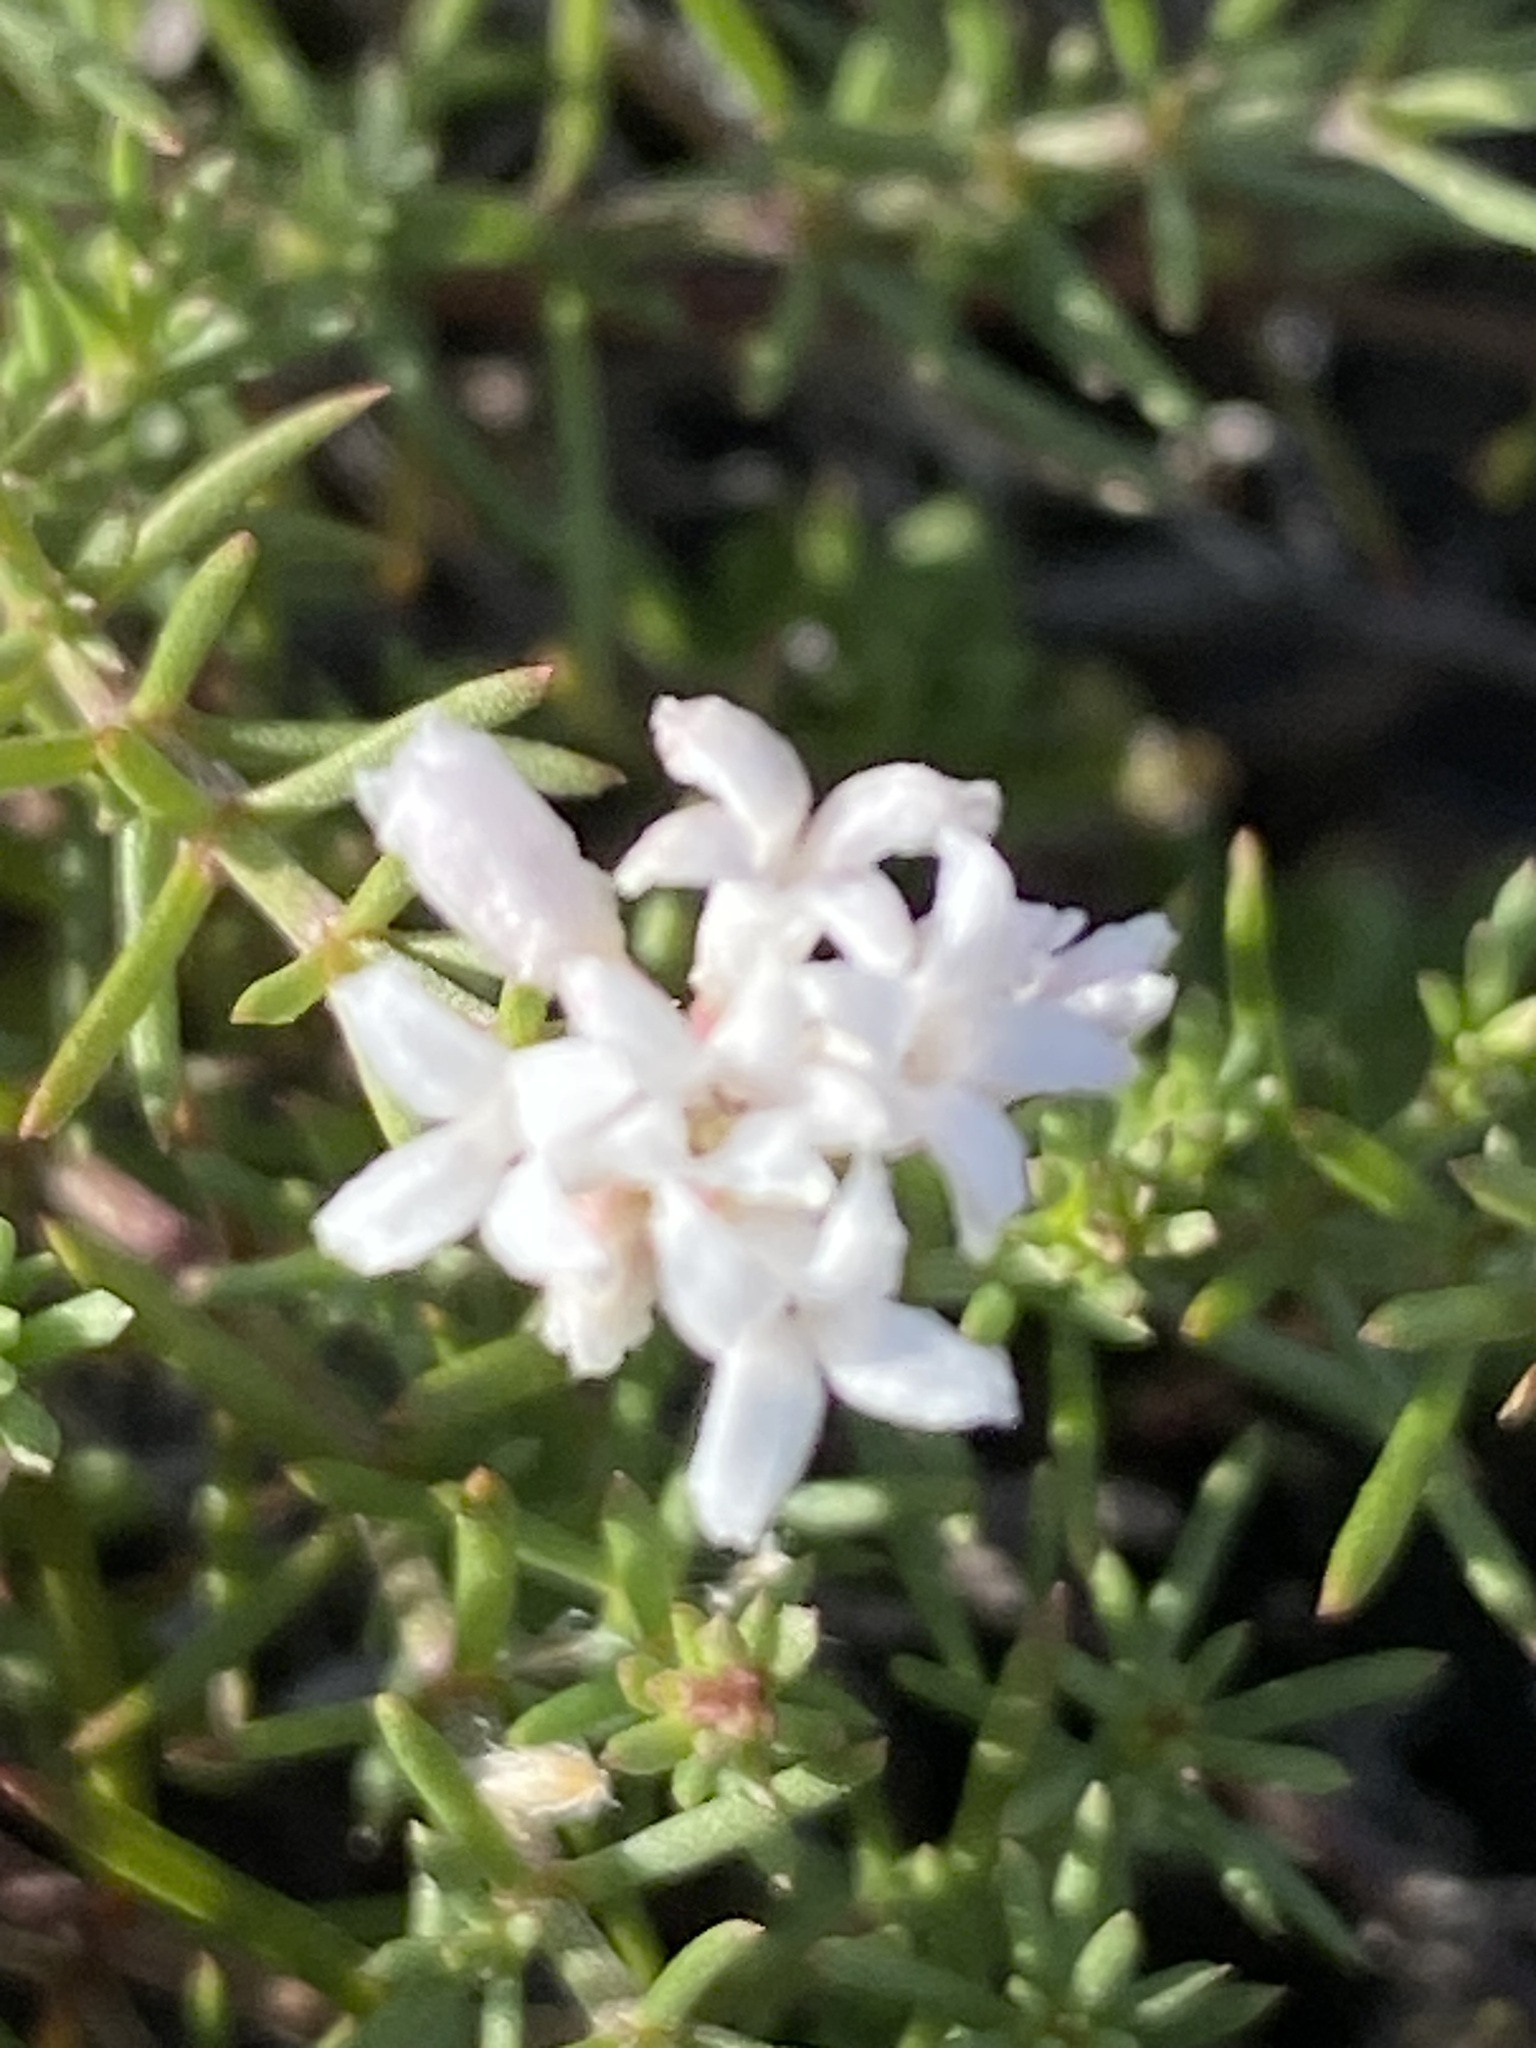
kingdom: Plantae
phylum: Tracheophyta
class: Magnoliopsida
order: Gentianales
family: Rubiaceae
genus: Cynanchica
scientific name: Cynanchica tephrocarpa
